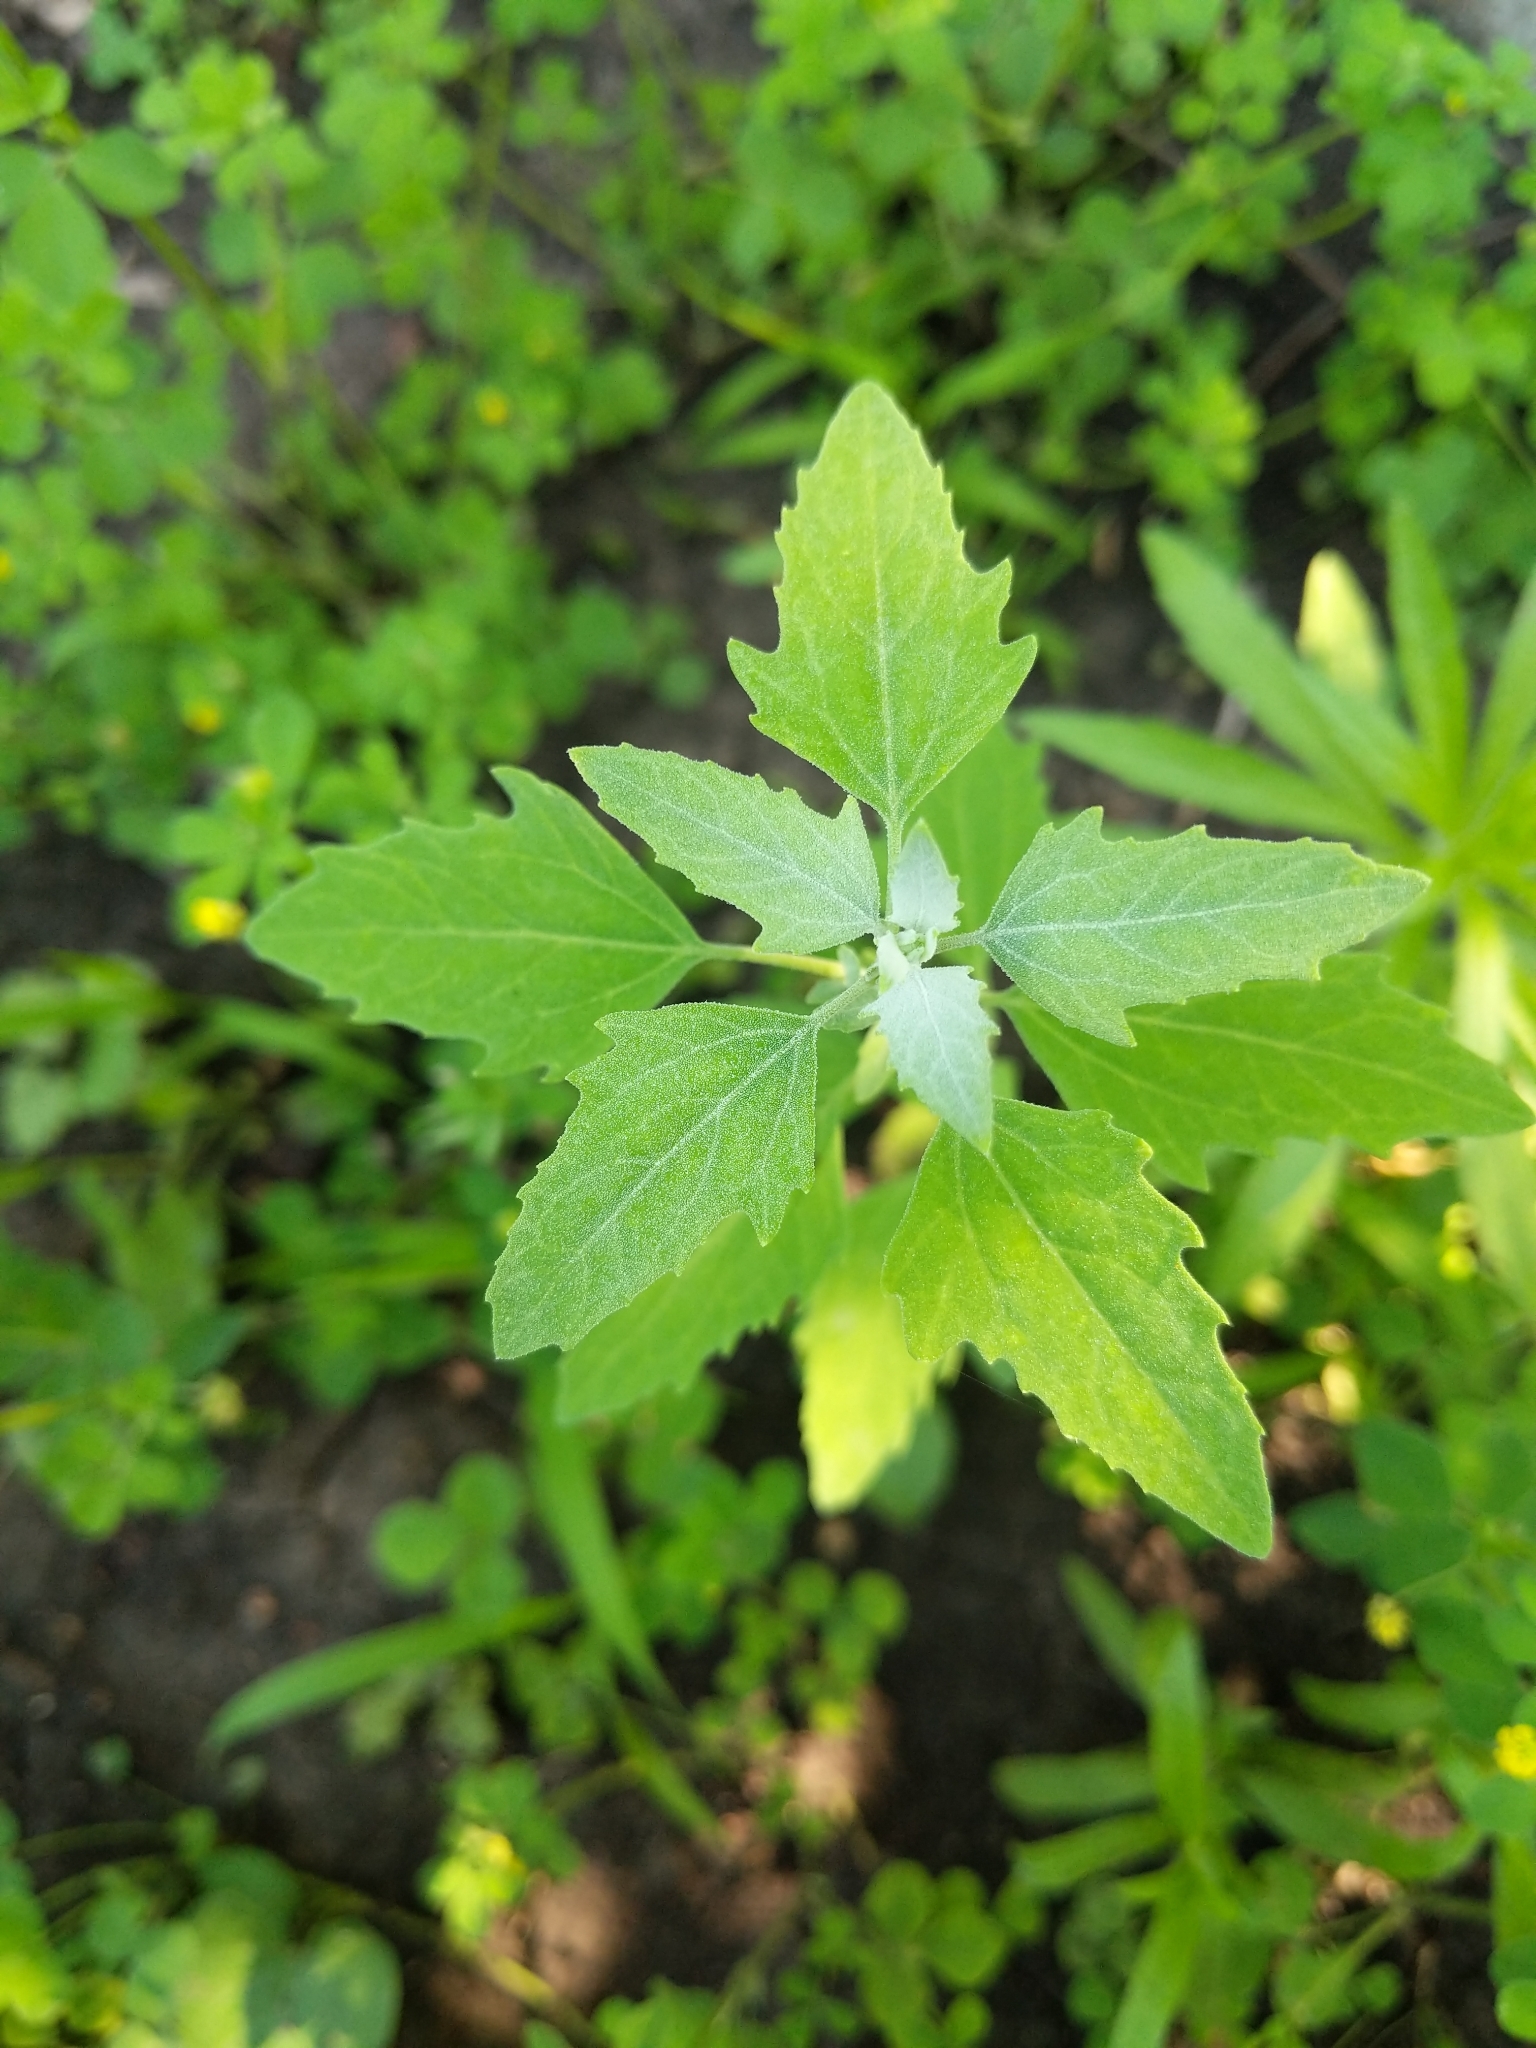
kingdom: Plantae
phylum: Tracheophyta
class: Magnoliopsida
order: Caryophyllales
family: Amaranthaceae
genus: Chenopodium
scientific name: Chenopodium album
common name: Fat-hen
